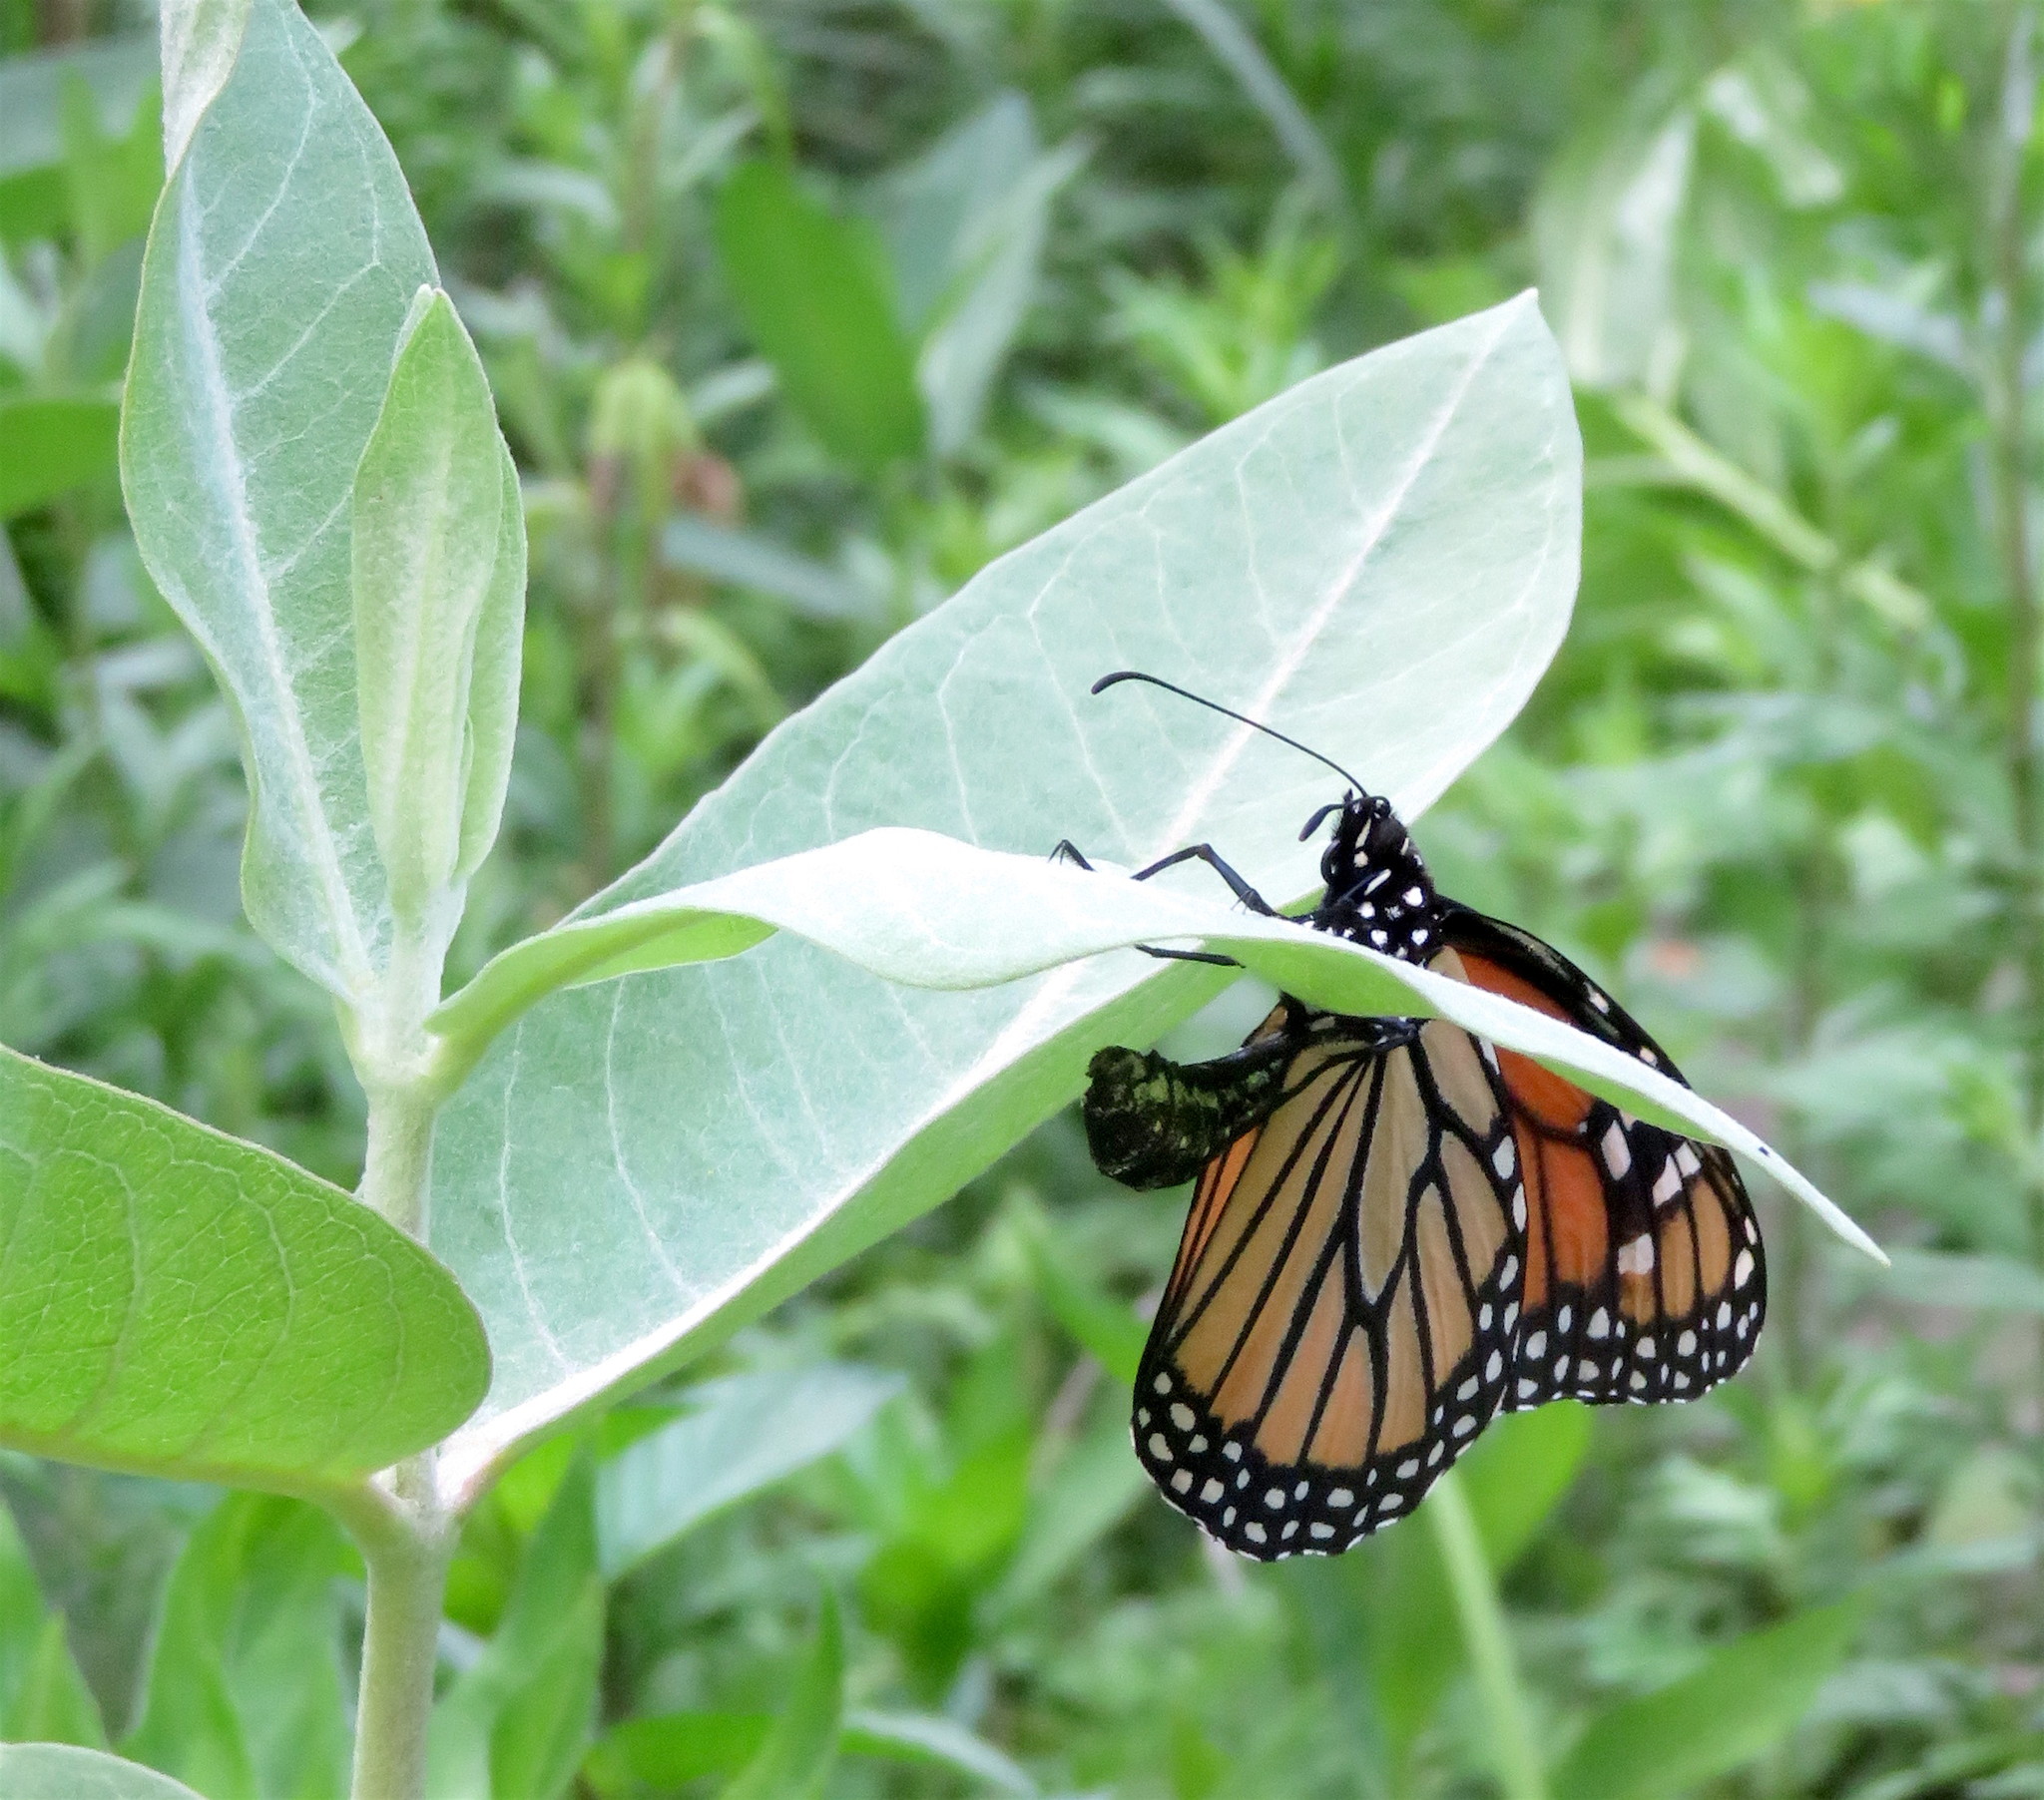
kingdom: Animalia
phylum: Arthropoda
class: Insecta
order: Lepidoptera
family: Nymphalidae
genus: Danaus
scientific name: Danaus plexippus
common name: Monarch
